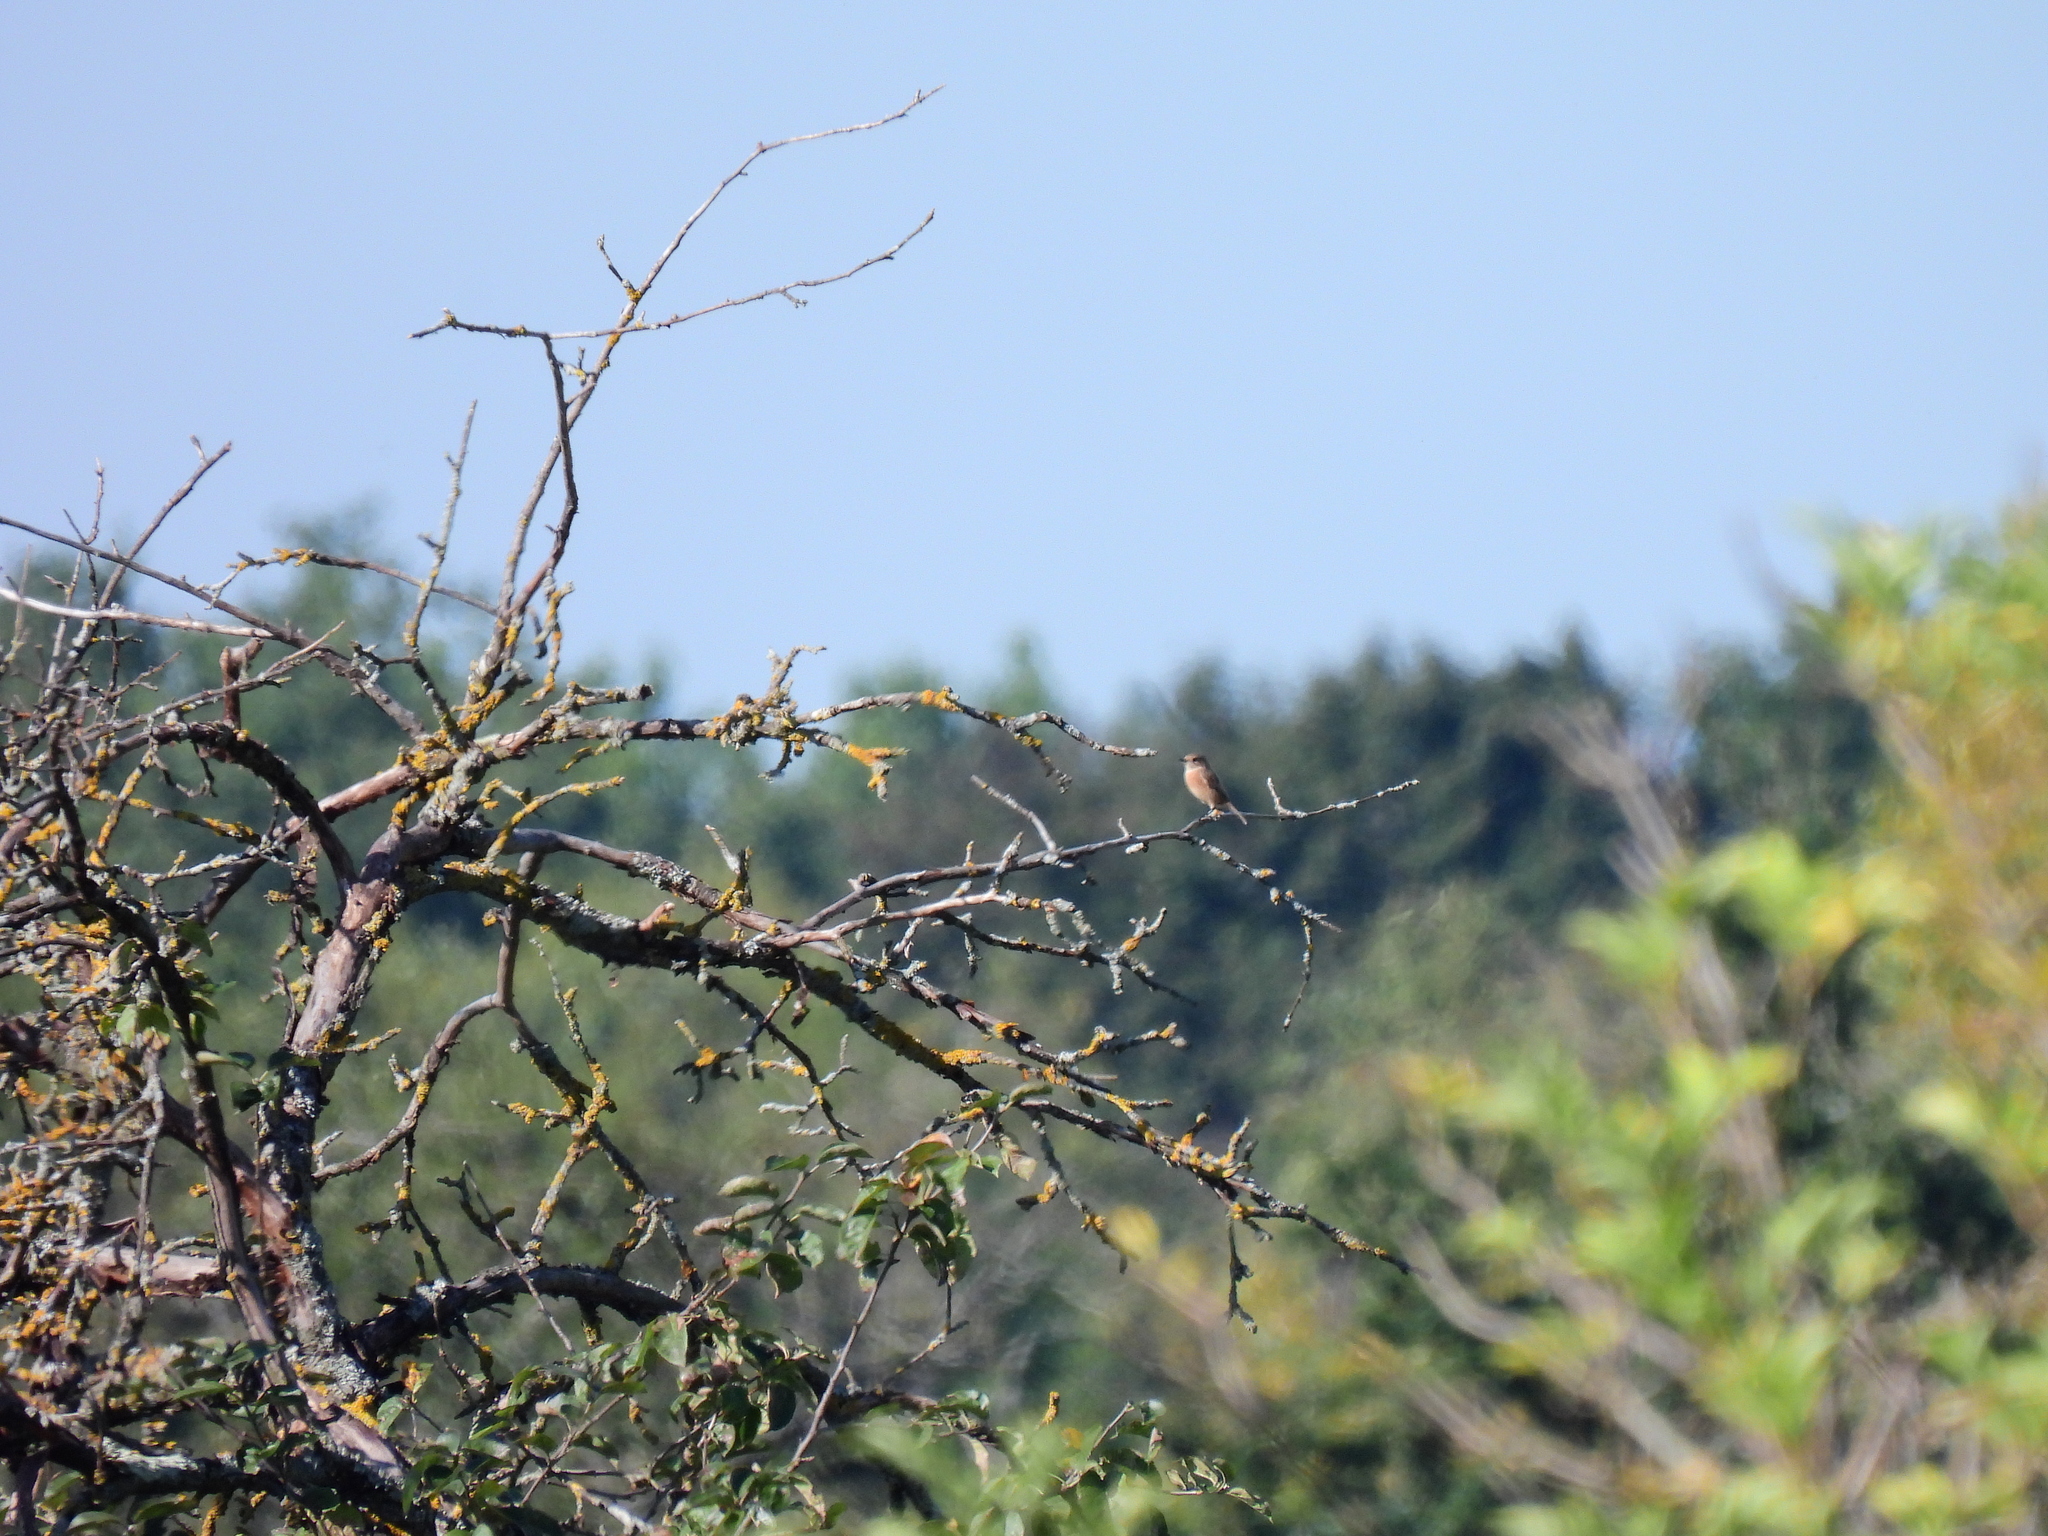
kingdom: Animalia
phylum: Chordata
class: Aves
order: Passeriformes
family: Muscicapidae
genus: Saxicola
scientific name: Saxicola rubicola
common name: European stonechat
